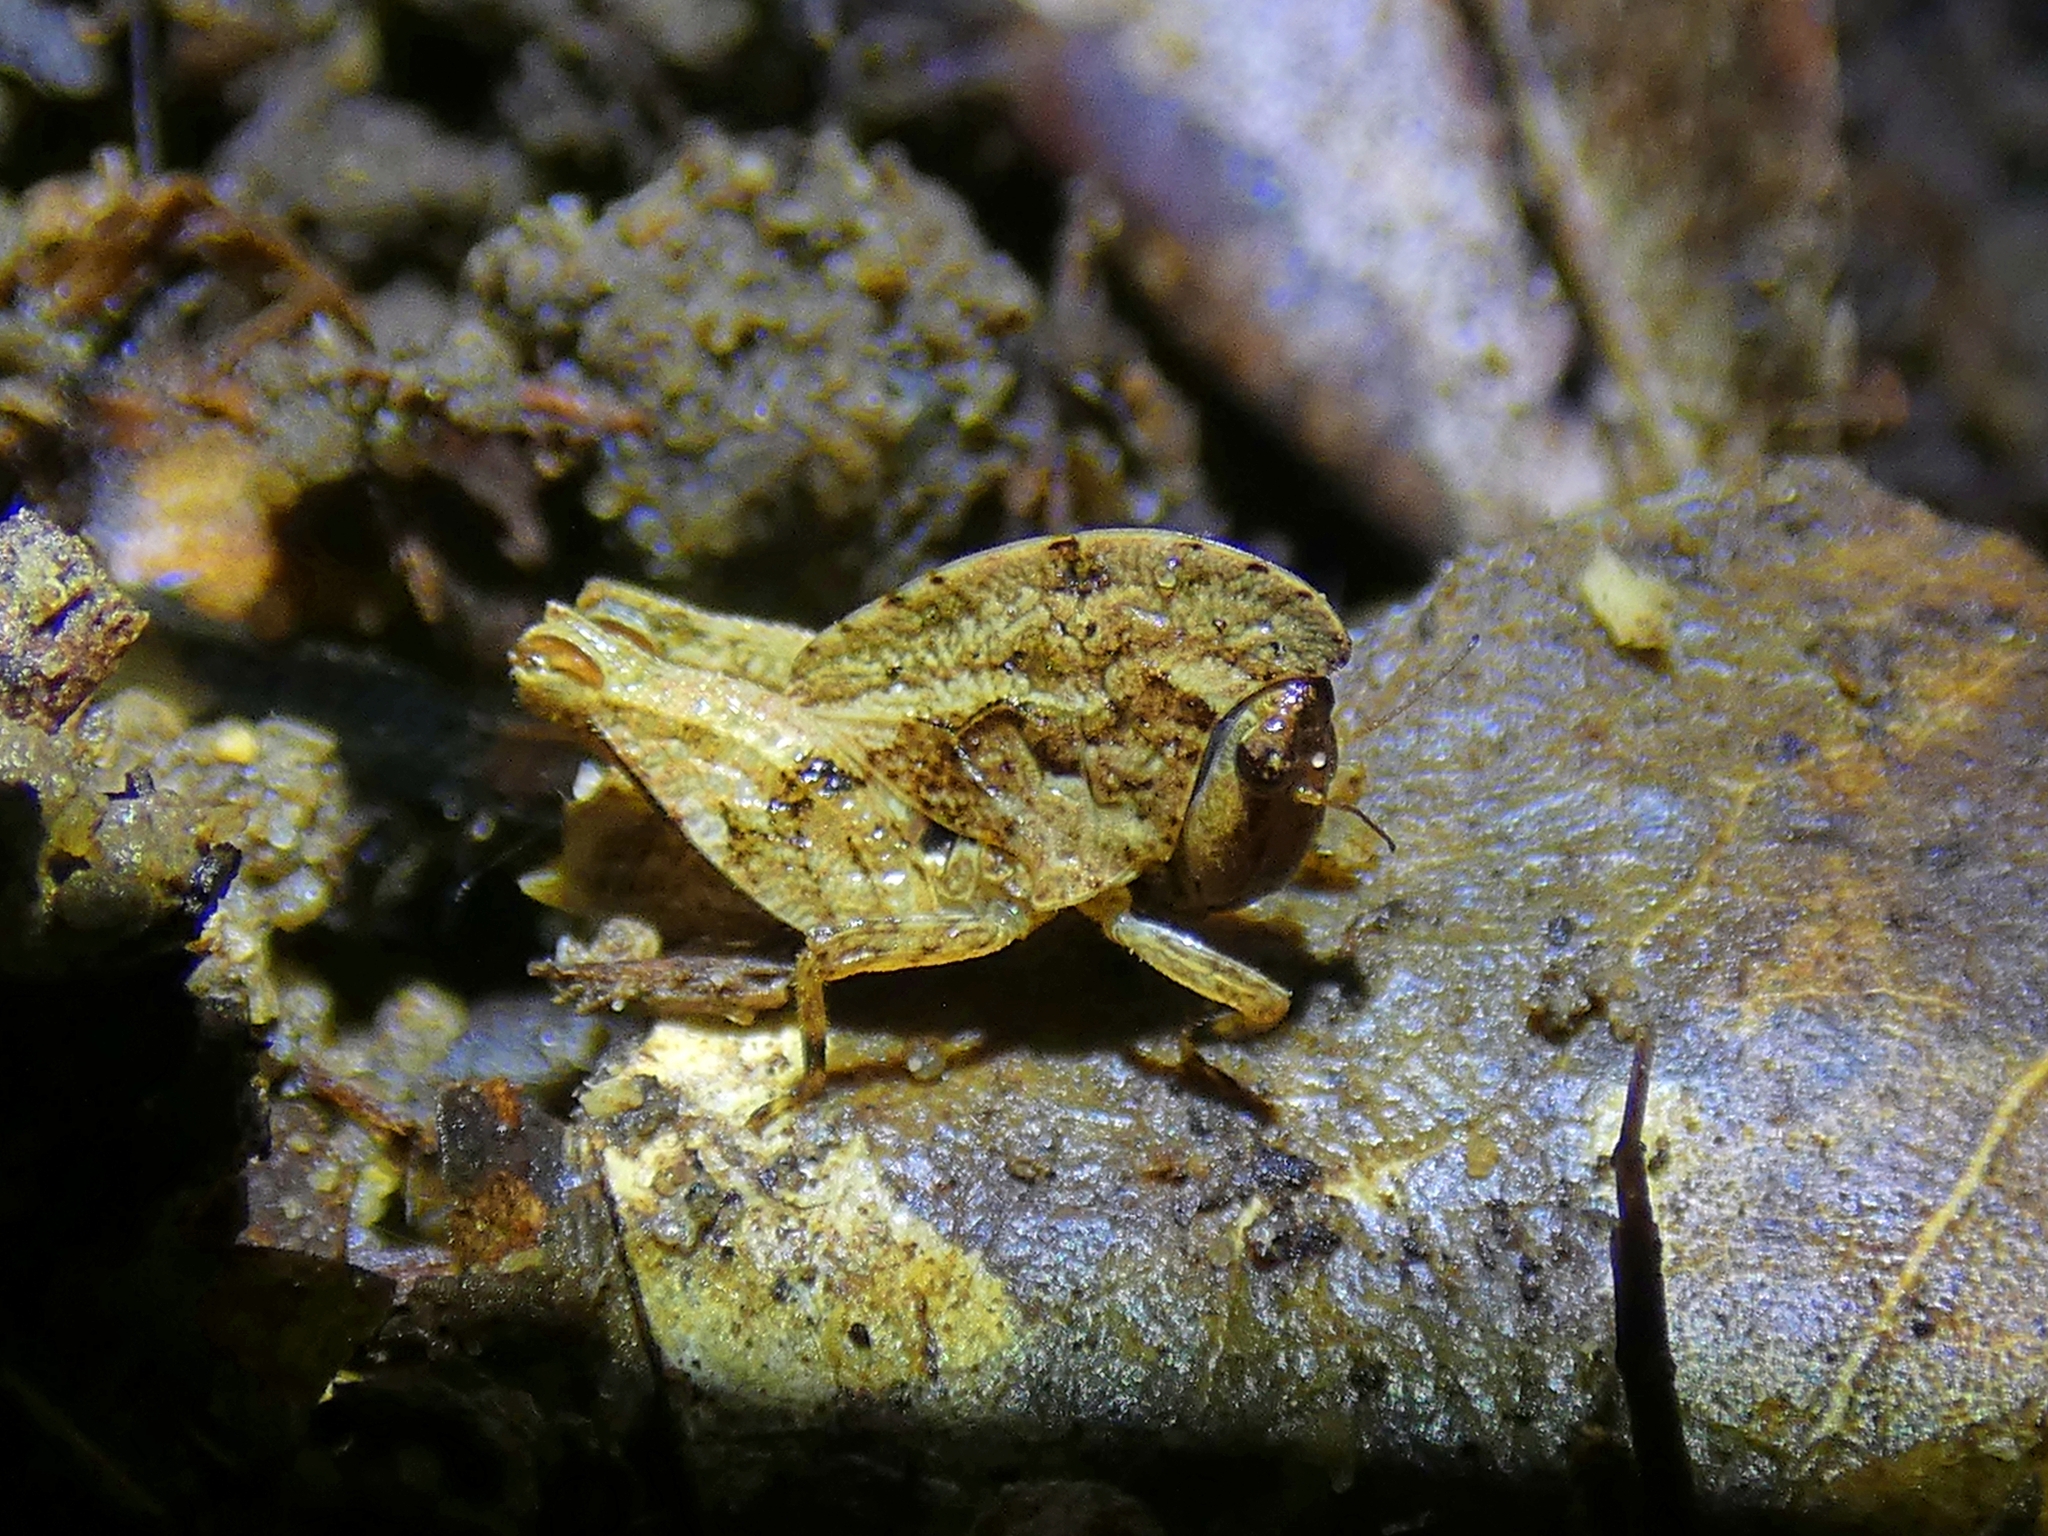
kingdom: Animalia
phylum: Arthropoda
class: Insecta
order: Orthoptera
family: Tetrigidae
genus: Selivinga
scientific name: Selivinga tribulata
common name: Tribulation helmed groundhopper
